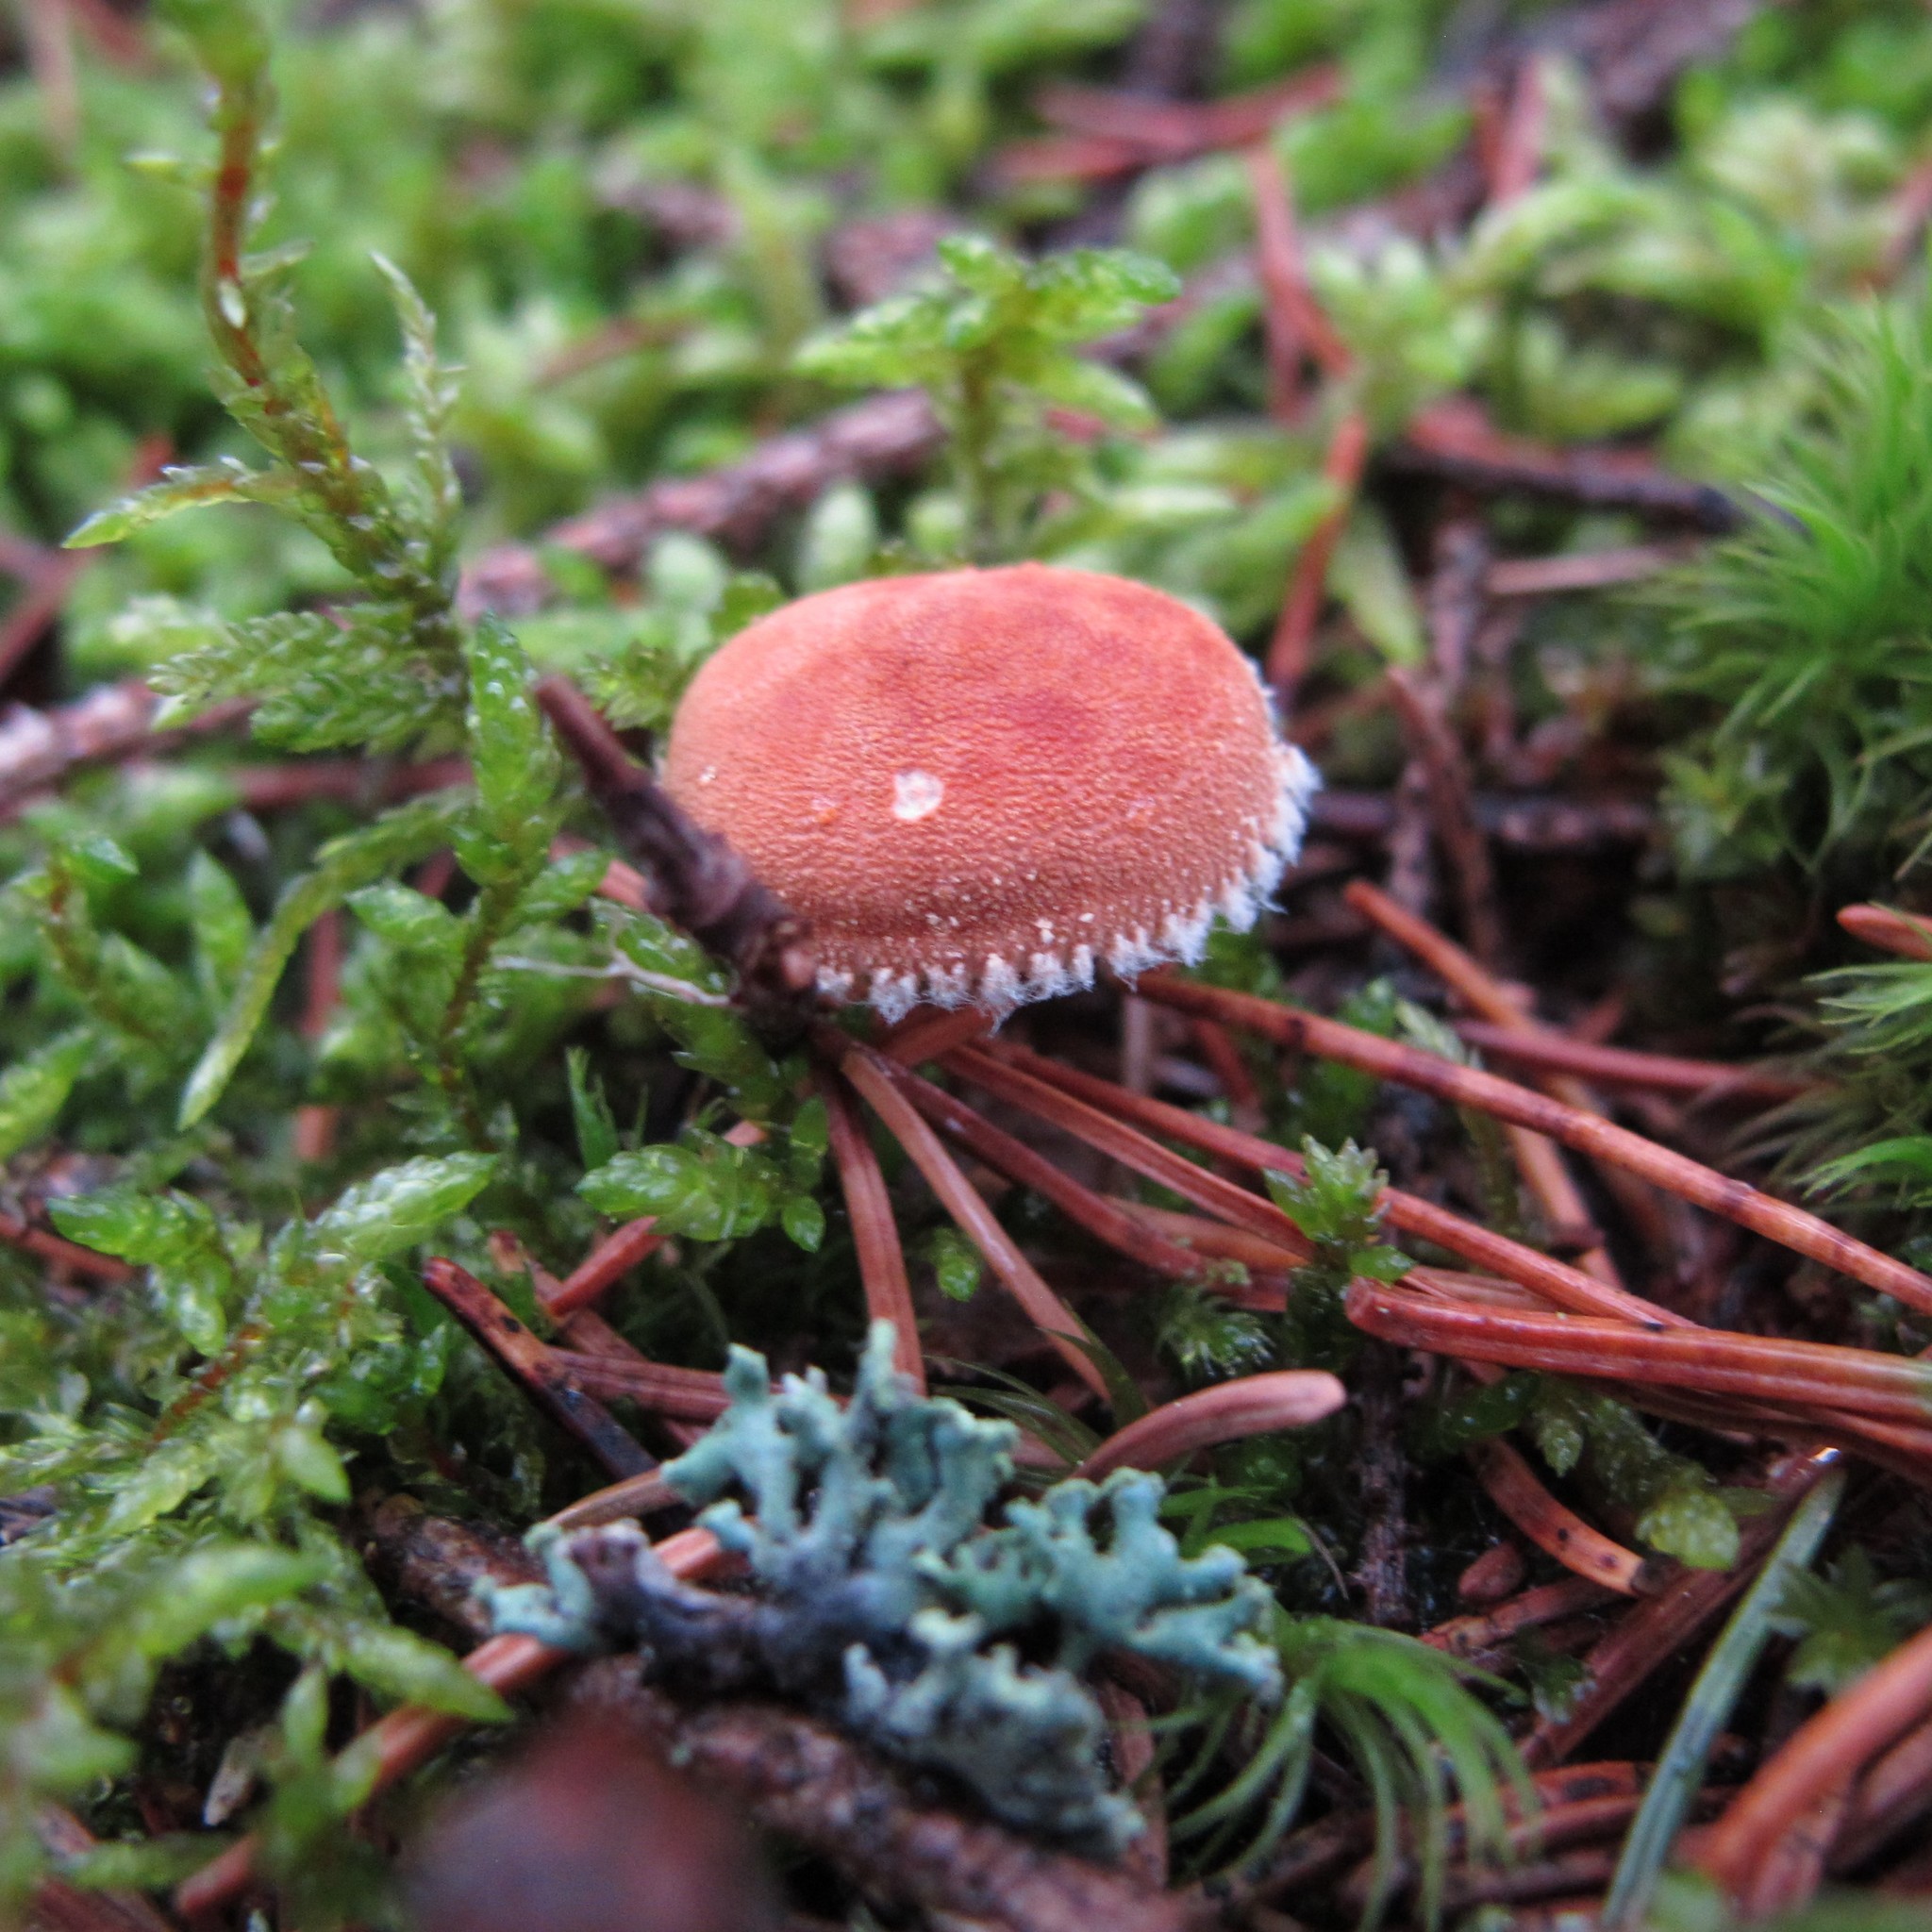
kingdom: Fungi
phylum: Basidiomycota
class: Agaricomycetes
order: Agaricales
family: Agaricaceae
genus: Cystodermella
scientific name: Cystodermella cinnabarina
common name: Cinnabar powdercap
